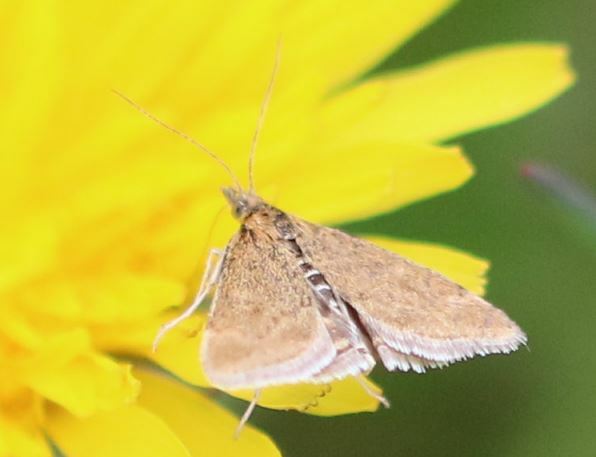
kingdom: Animalia
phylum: Arthropoda
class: Insecta
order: Lepidoptera
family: Crambidae
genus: Pyrausta
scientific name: Pyrausta despicata
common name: Straw-barred pearl
